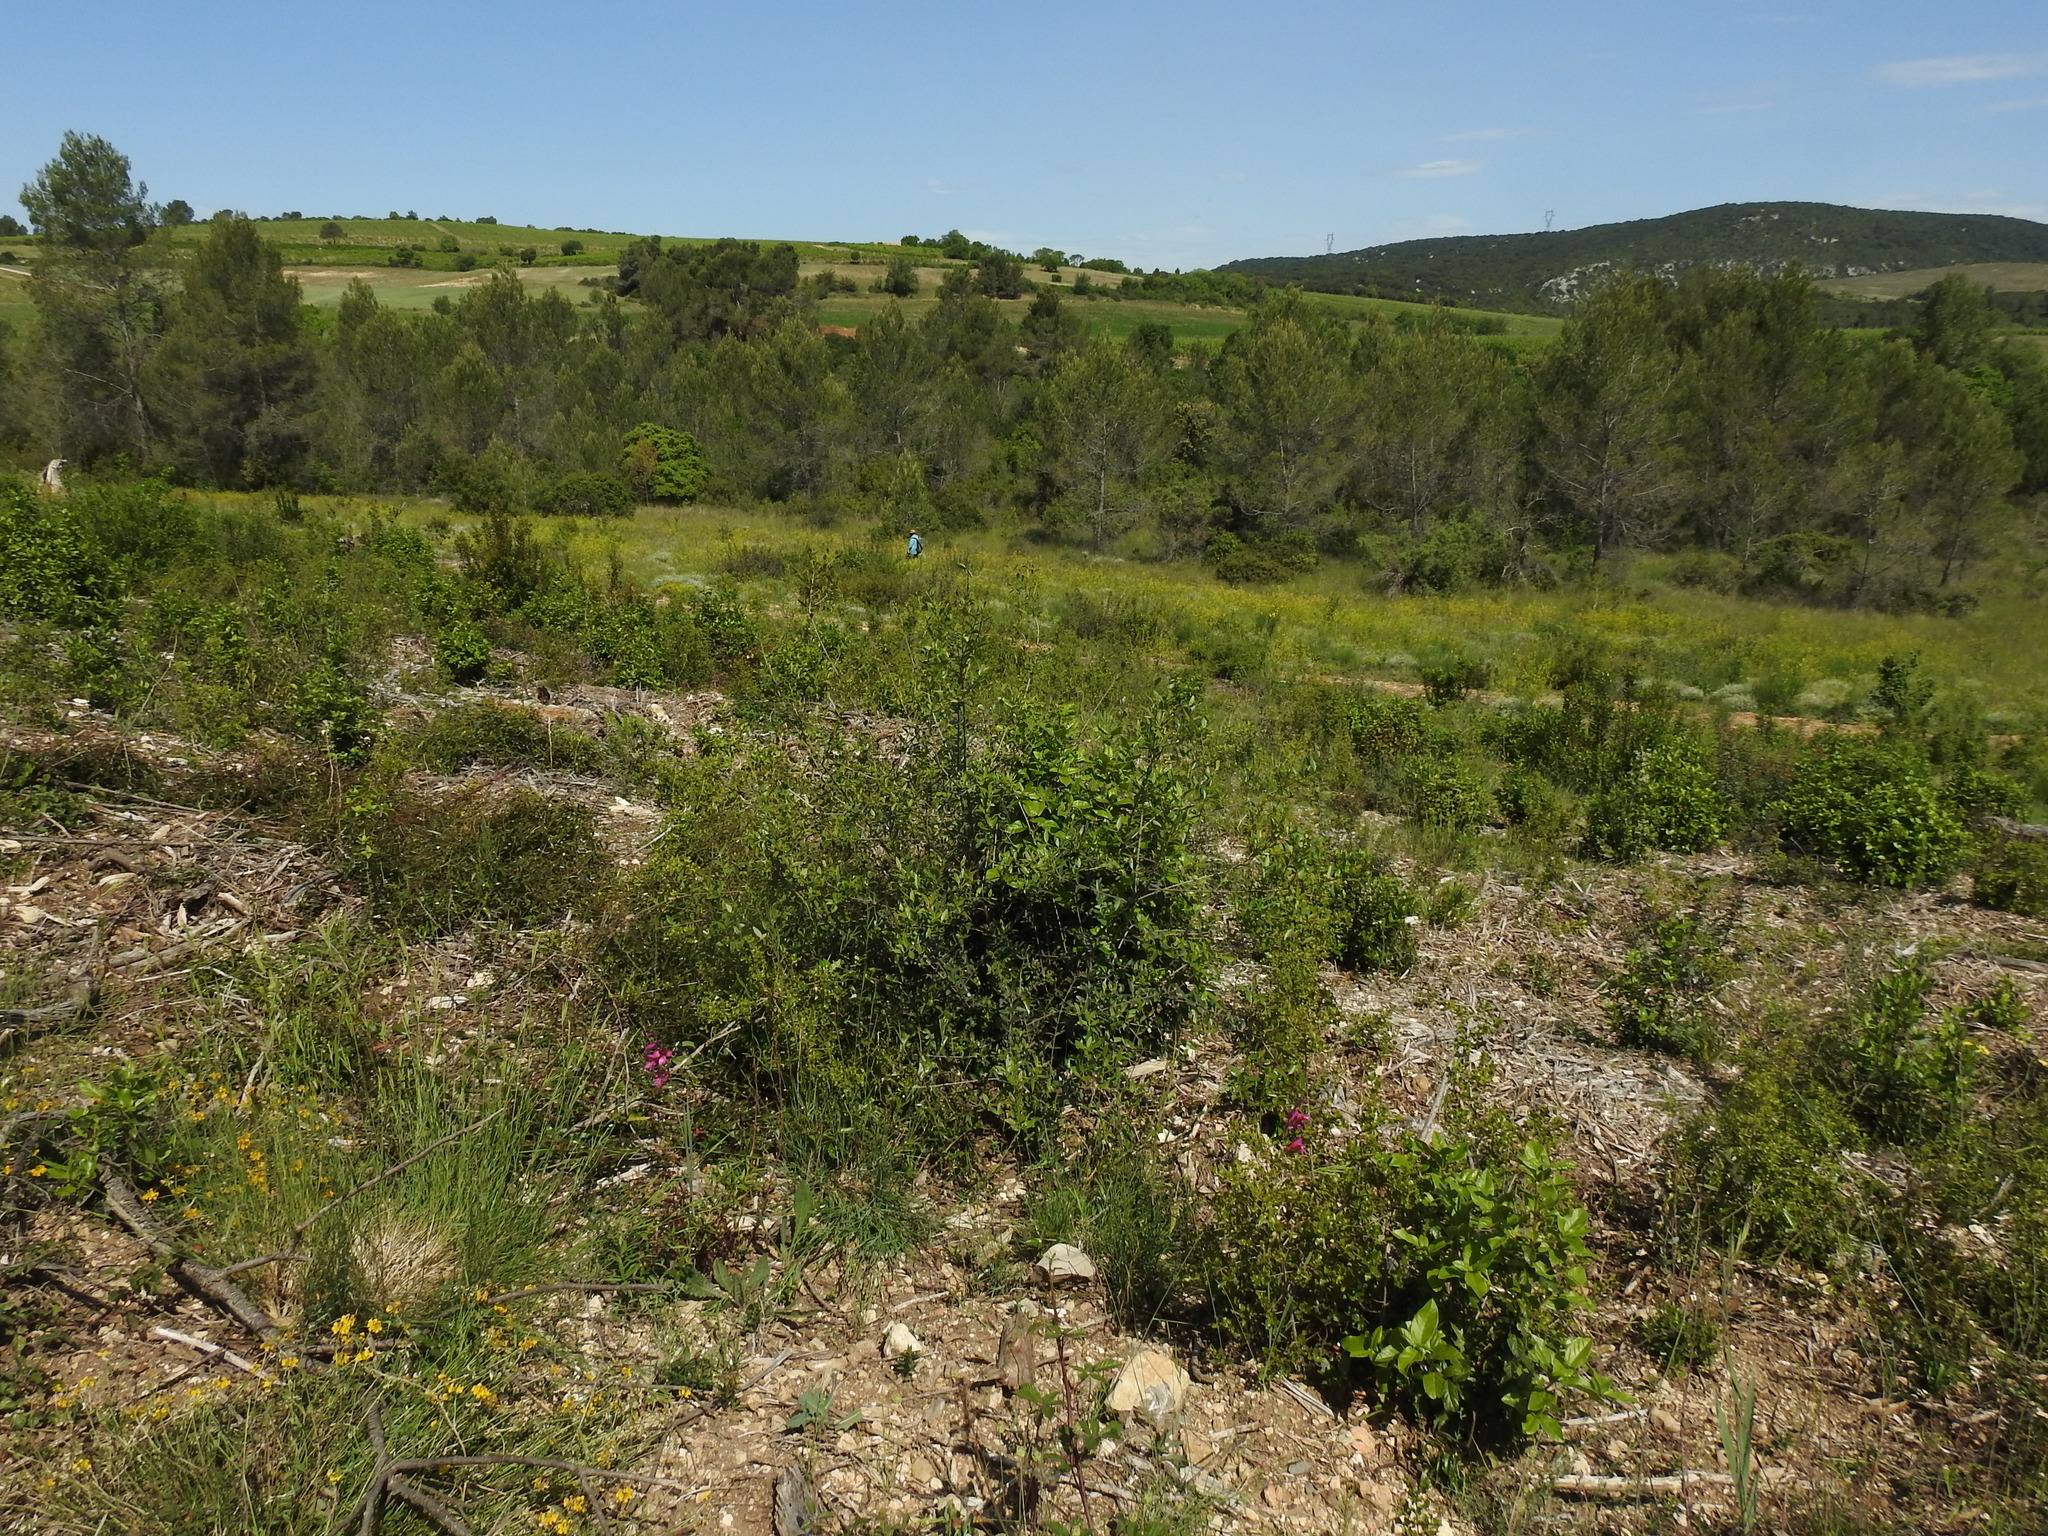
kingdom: Plantae
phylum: Tracheophyta
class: Liliopsida
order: Asparagales
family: Iridaceae
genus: Gladiolus
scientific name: Gladiolus dubius
